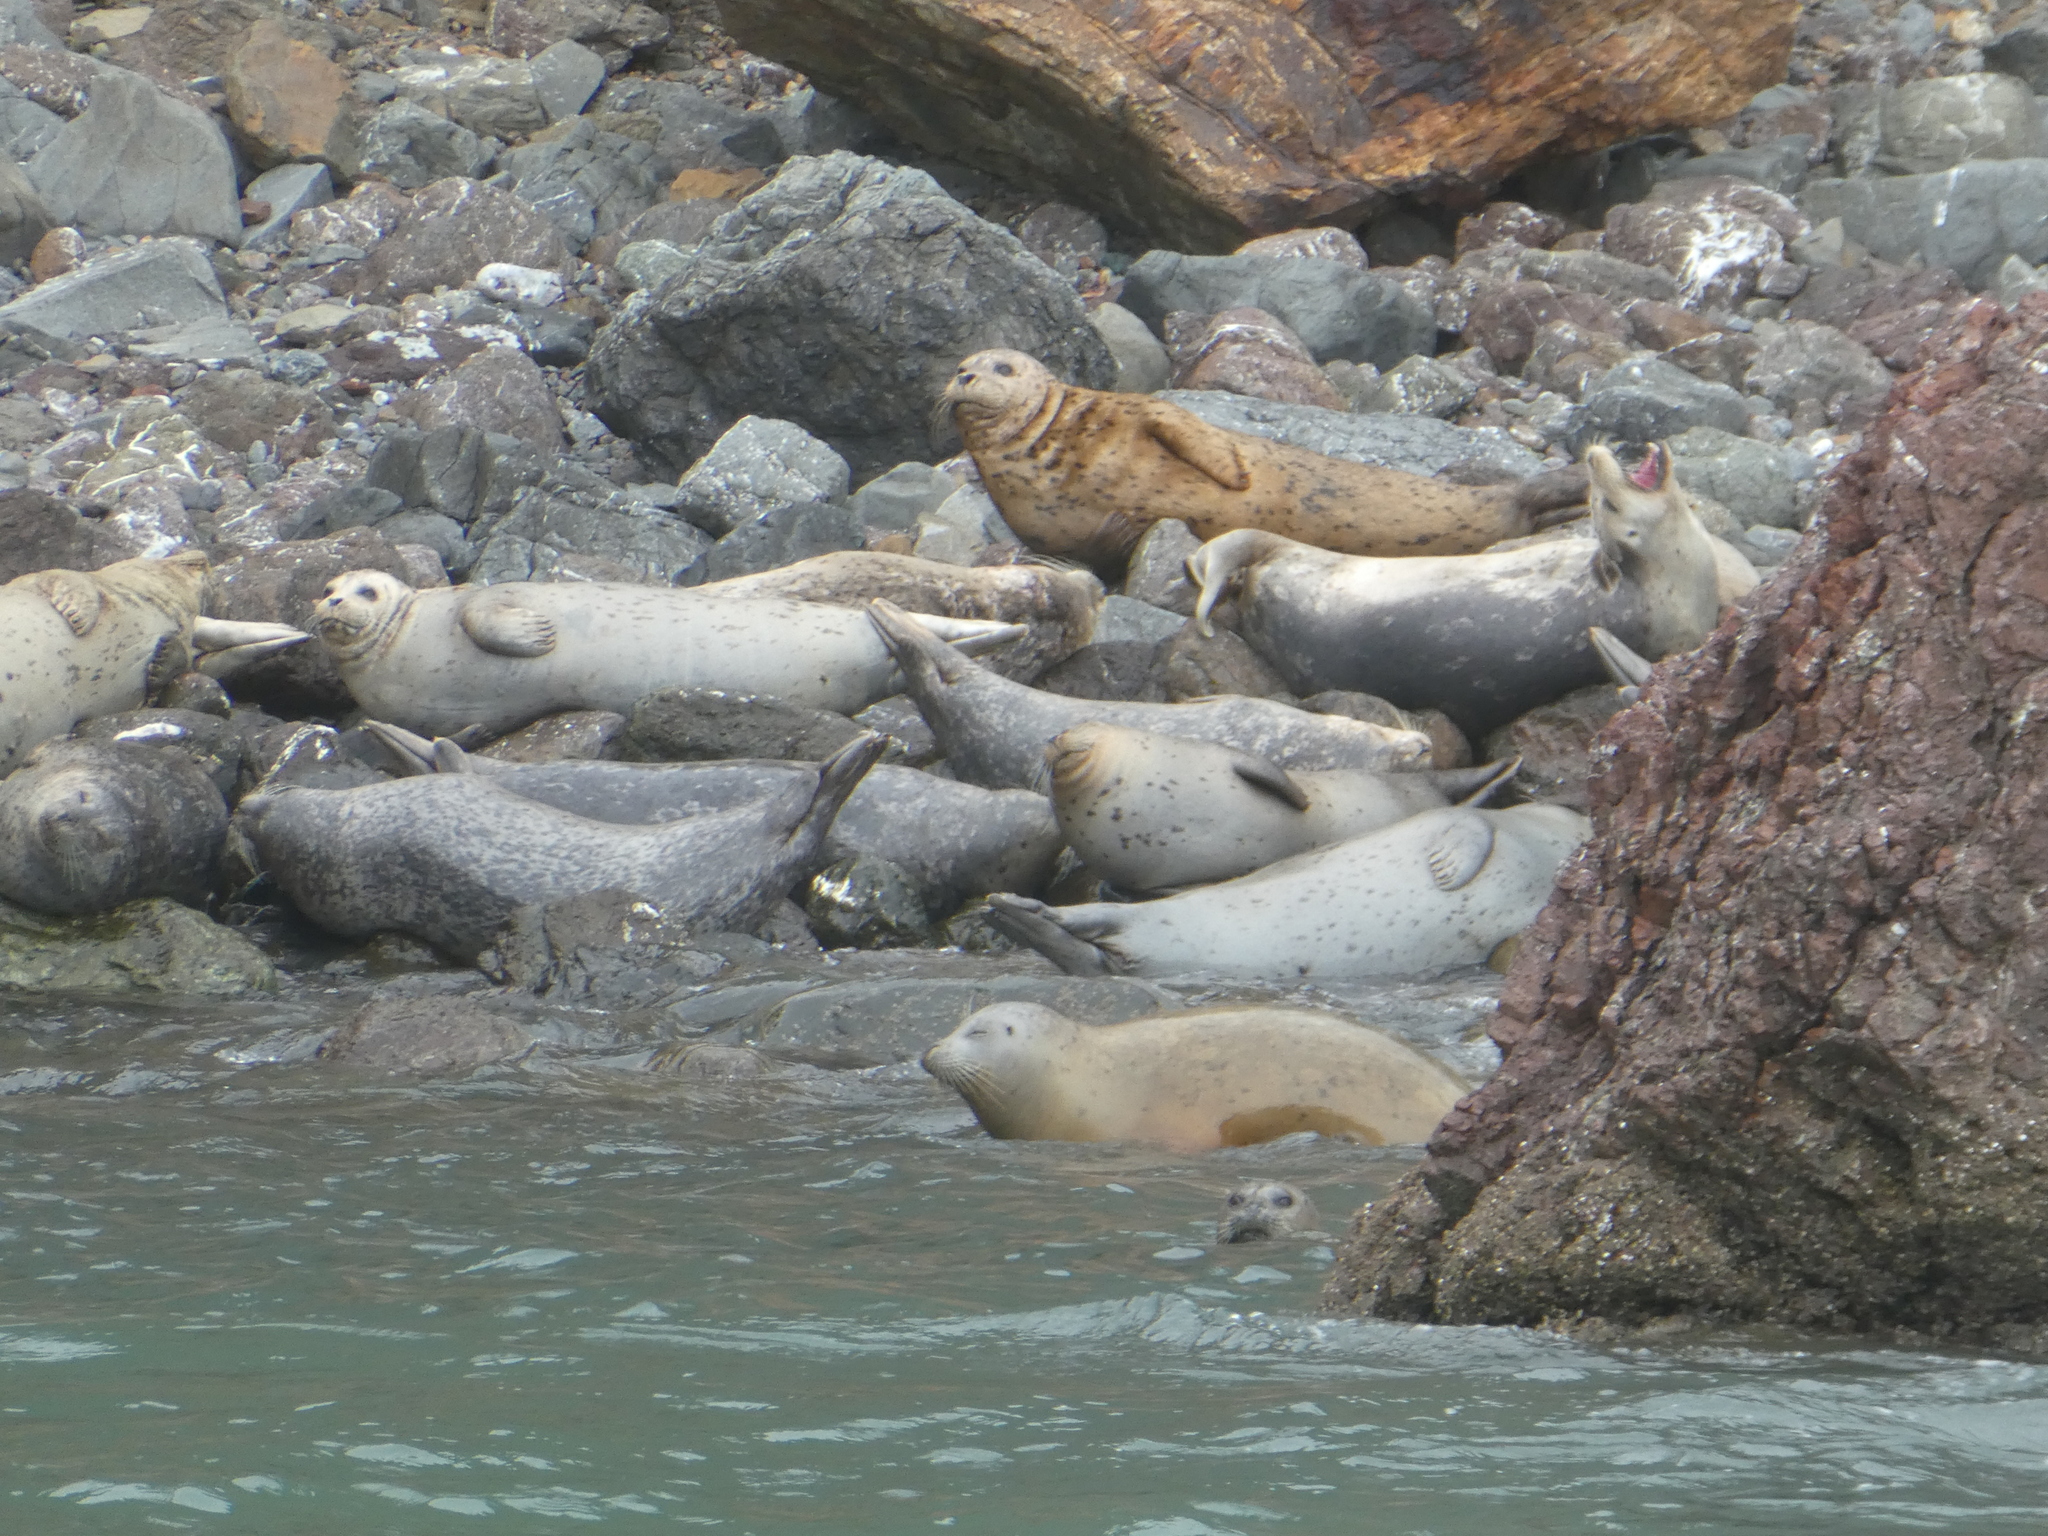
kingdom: Animalia
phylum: Chordata
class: Mammalia
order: Carnivora
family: Phocidae
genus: Phoca
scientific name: Phoca vitulina
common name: Harbor seal
